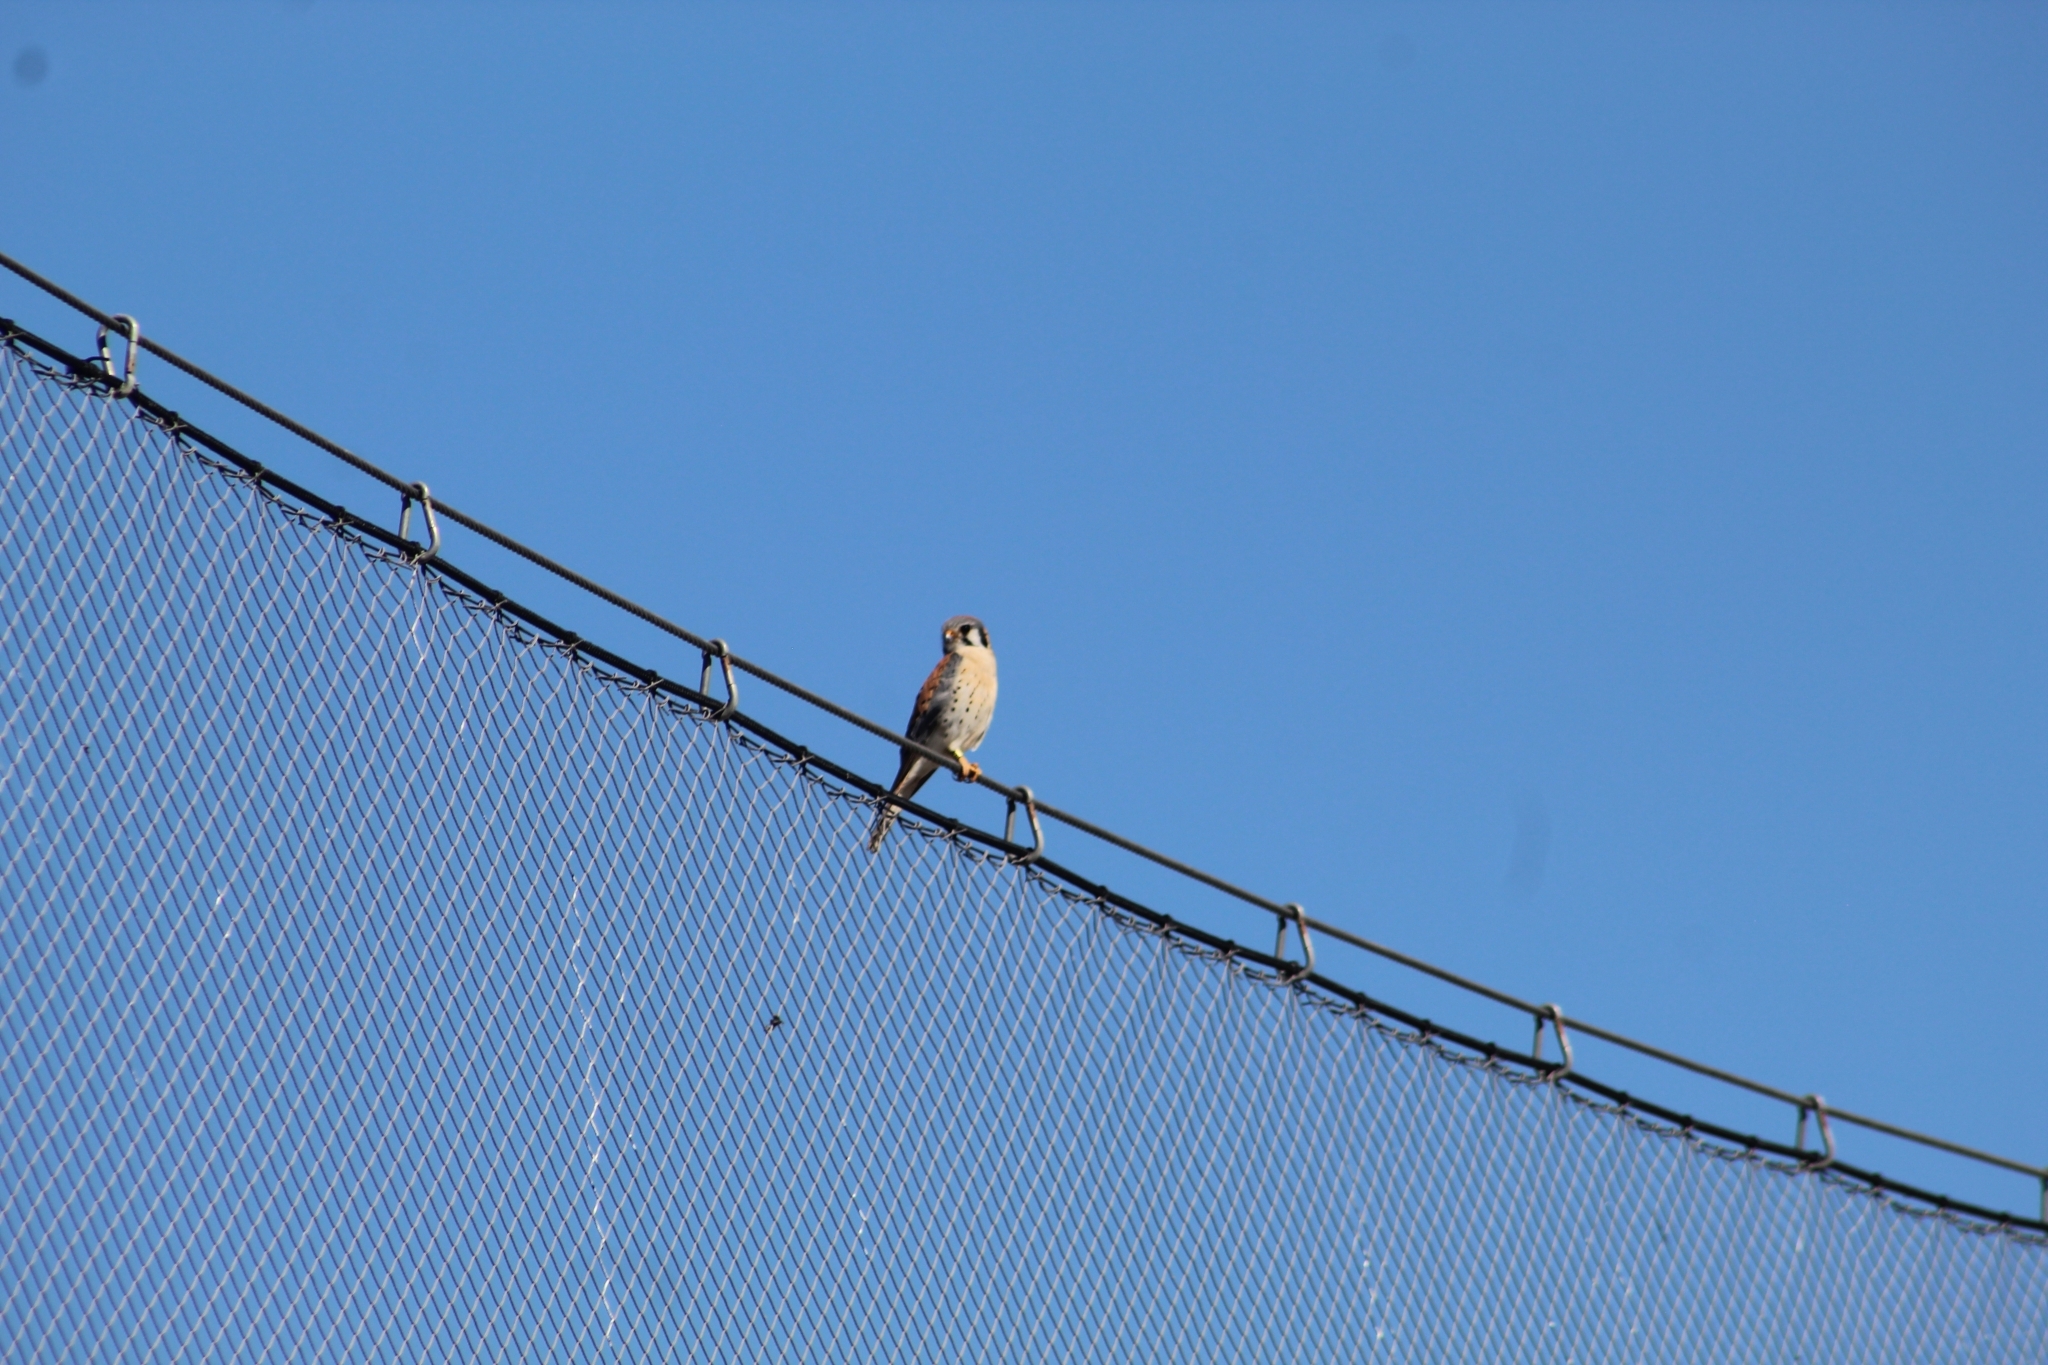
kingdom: Animalia
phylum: Chordata
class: Aves
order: Falconiformes
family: Falconidae
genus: Falco
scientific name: Falco sparverius
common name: American kestrel
